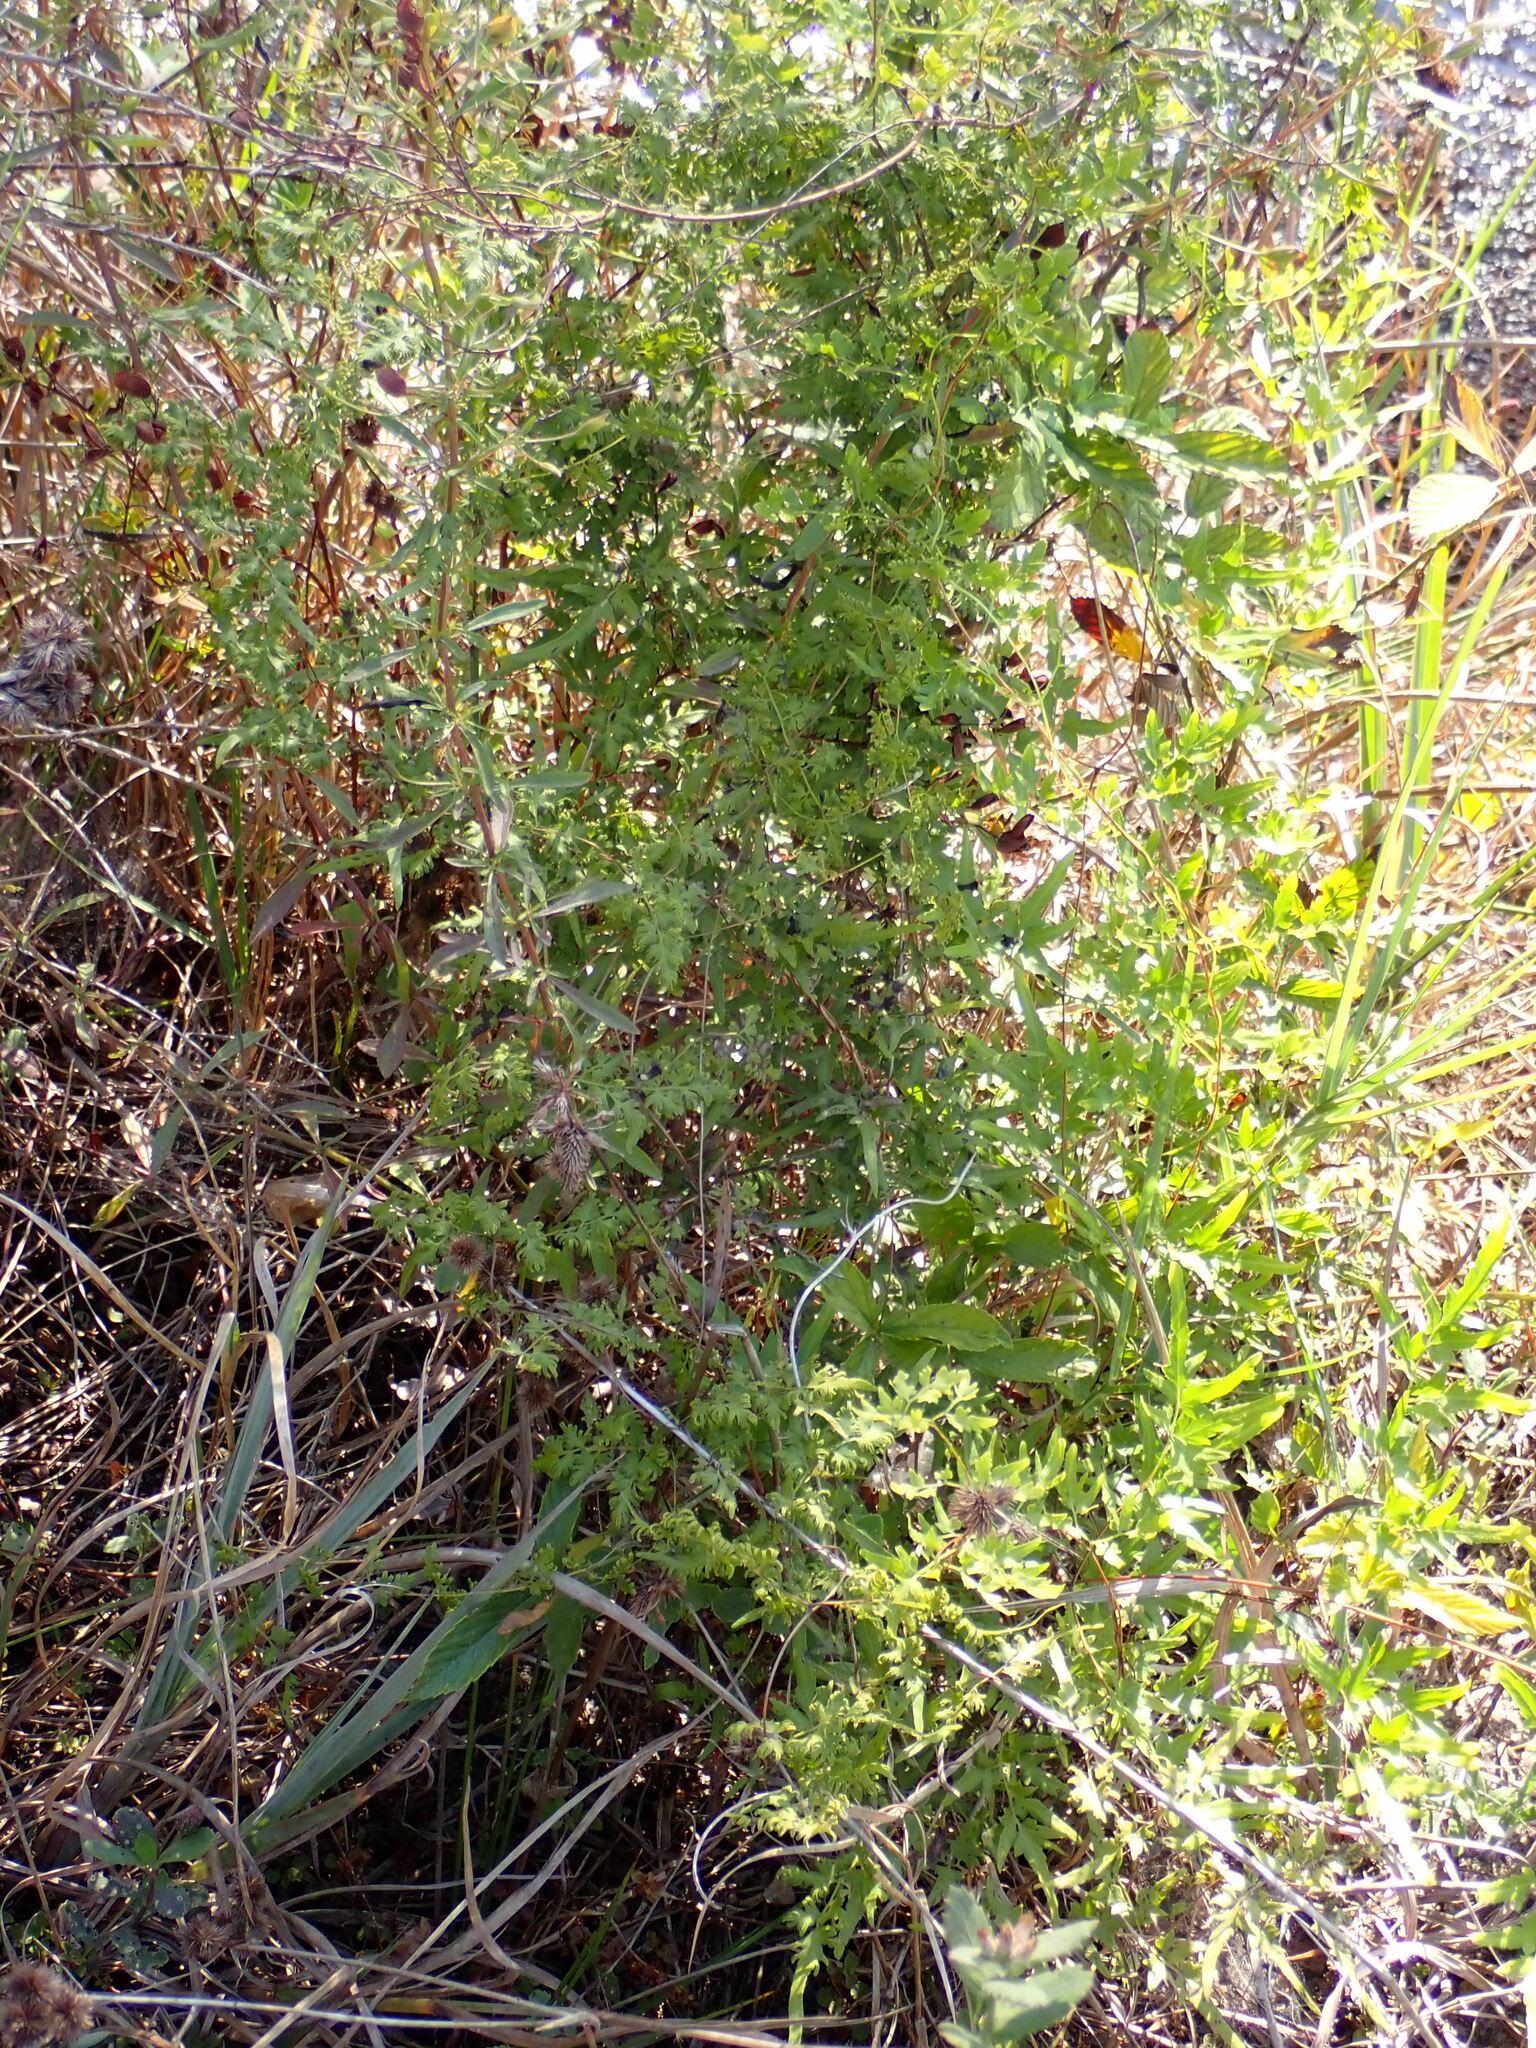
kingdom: Plantae
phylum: Tracheophyta
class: Polypodiopsida
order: Schizaeales
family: Lygodiaceae
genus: Lygodium
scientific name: Lygodium japonicum
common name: Japanese climbing fern
